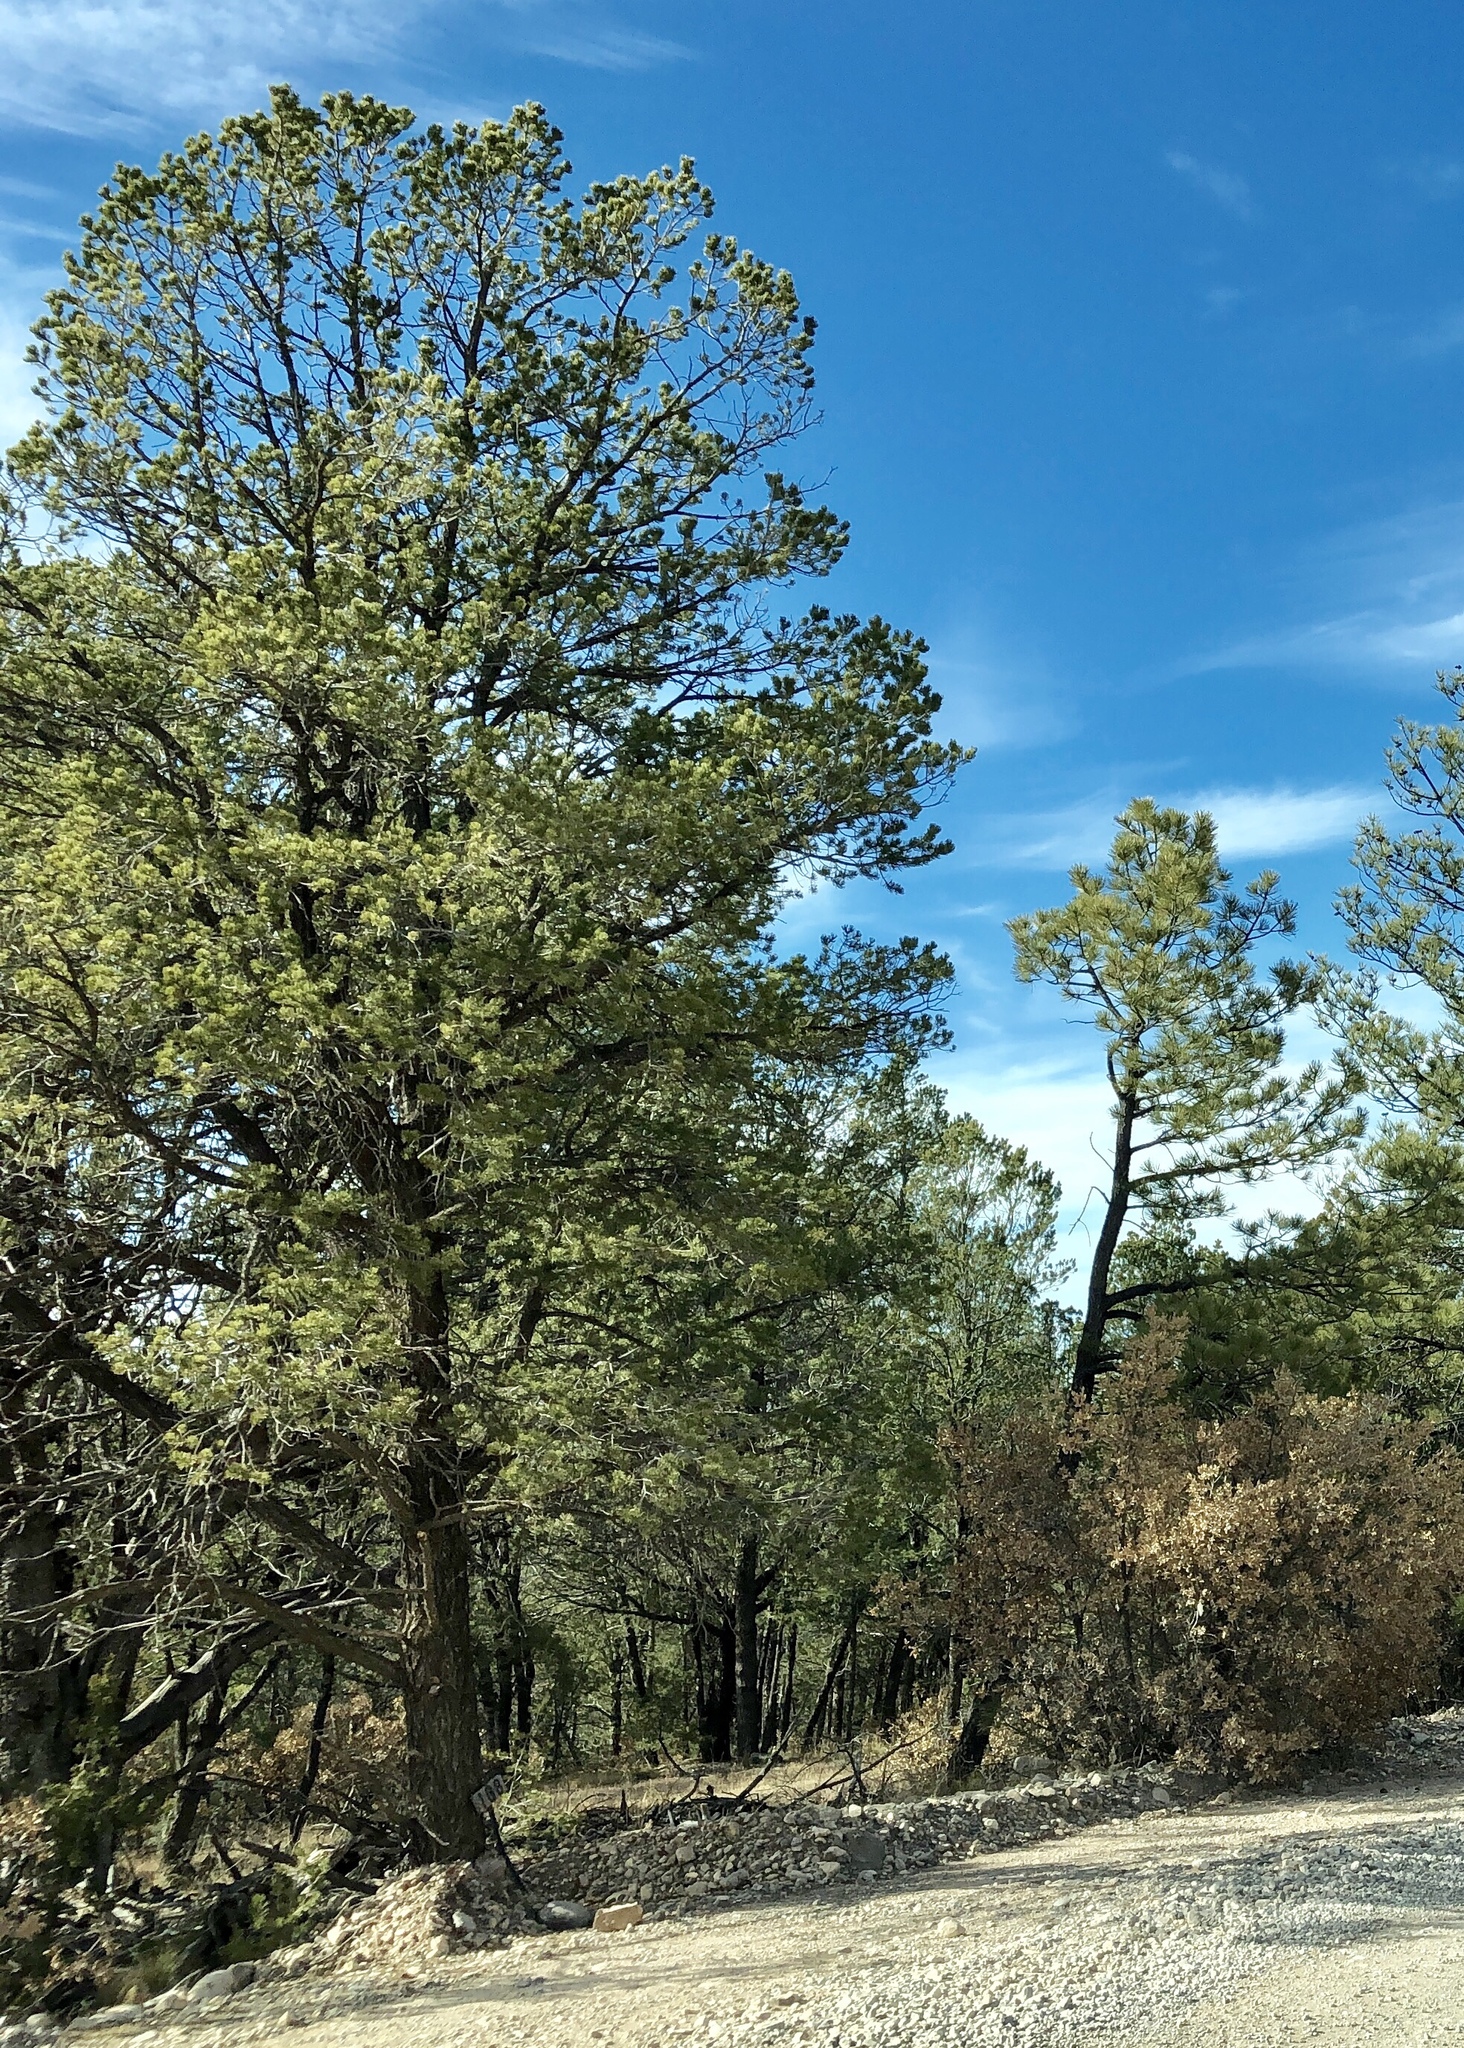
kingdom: Plantae
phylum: Tracheophyta
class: Pinopsida
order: Pinales
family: Pinaceae
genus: Pinus
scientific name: Pinus edulis
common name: Colorado pinyon
